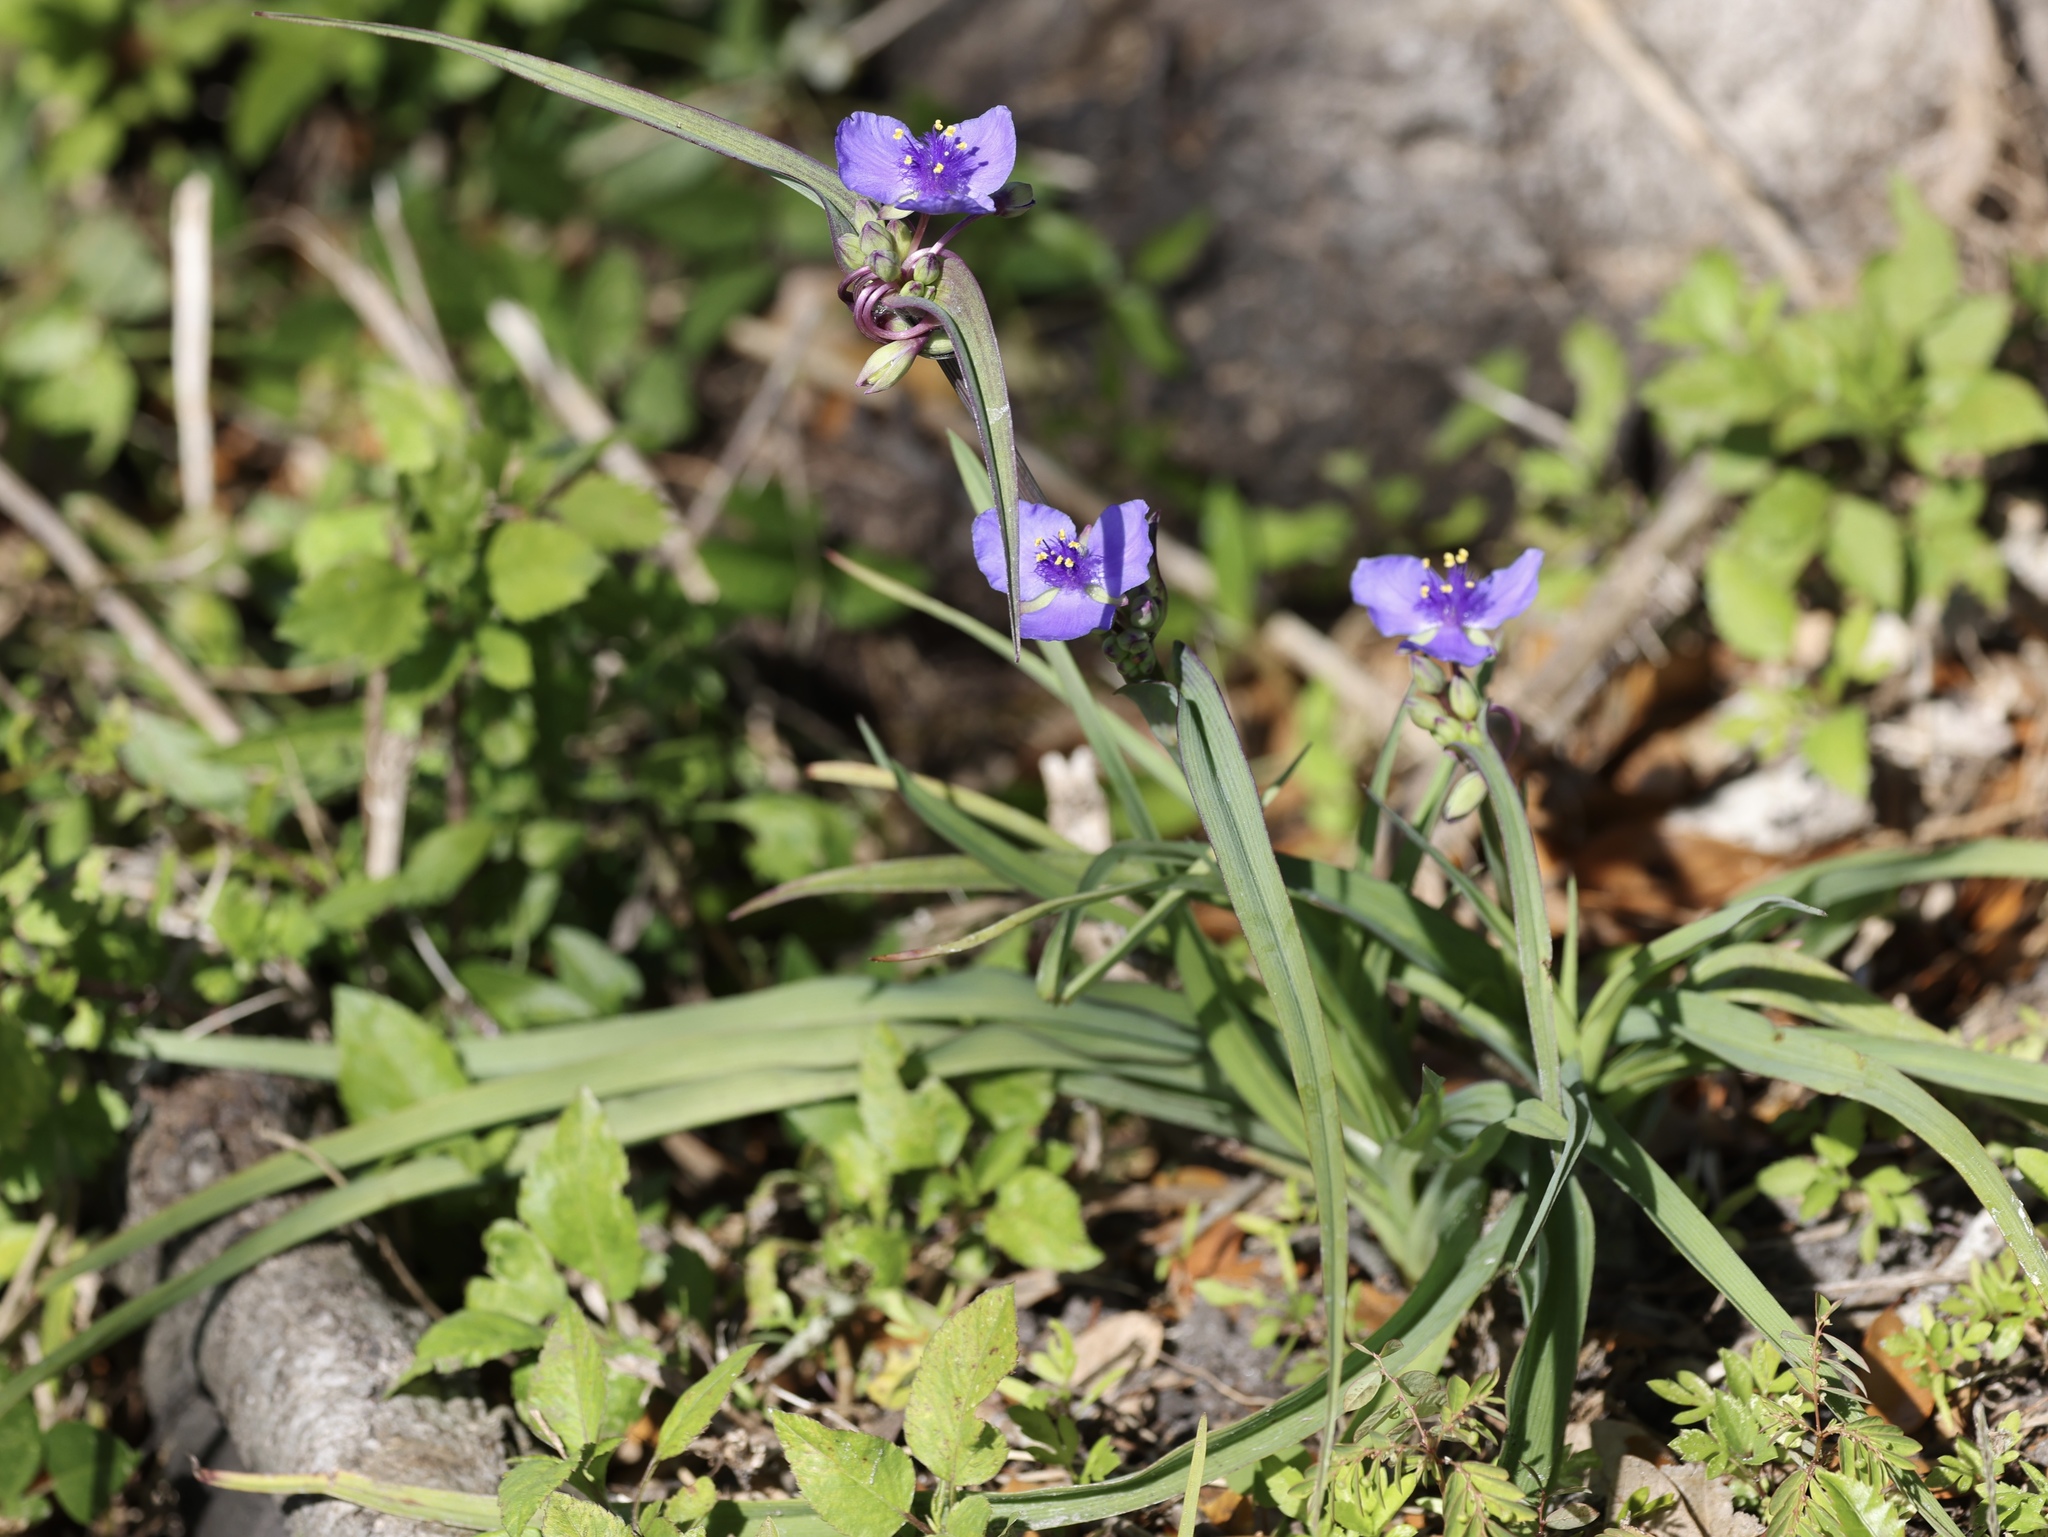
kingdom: Plantae
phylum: Tracheophyta
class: Liliopsida
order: Commelinales
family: Commelinaceae
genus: Tradescantia
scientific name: Tradescantia ohiensis
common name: Ohio spiderwort
